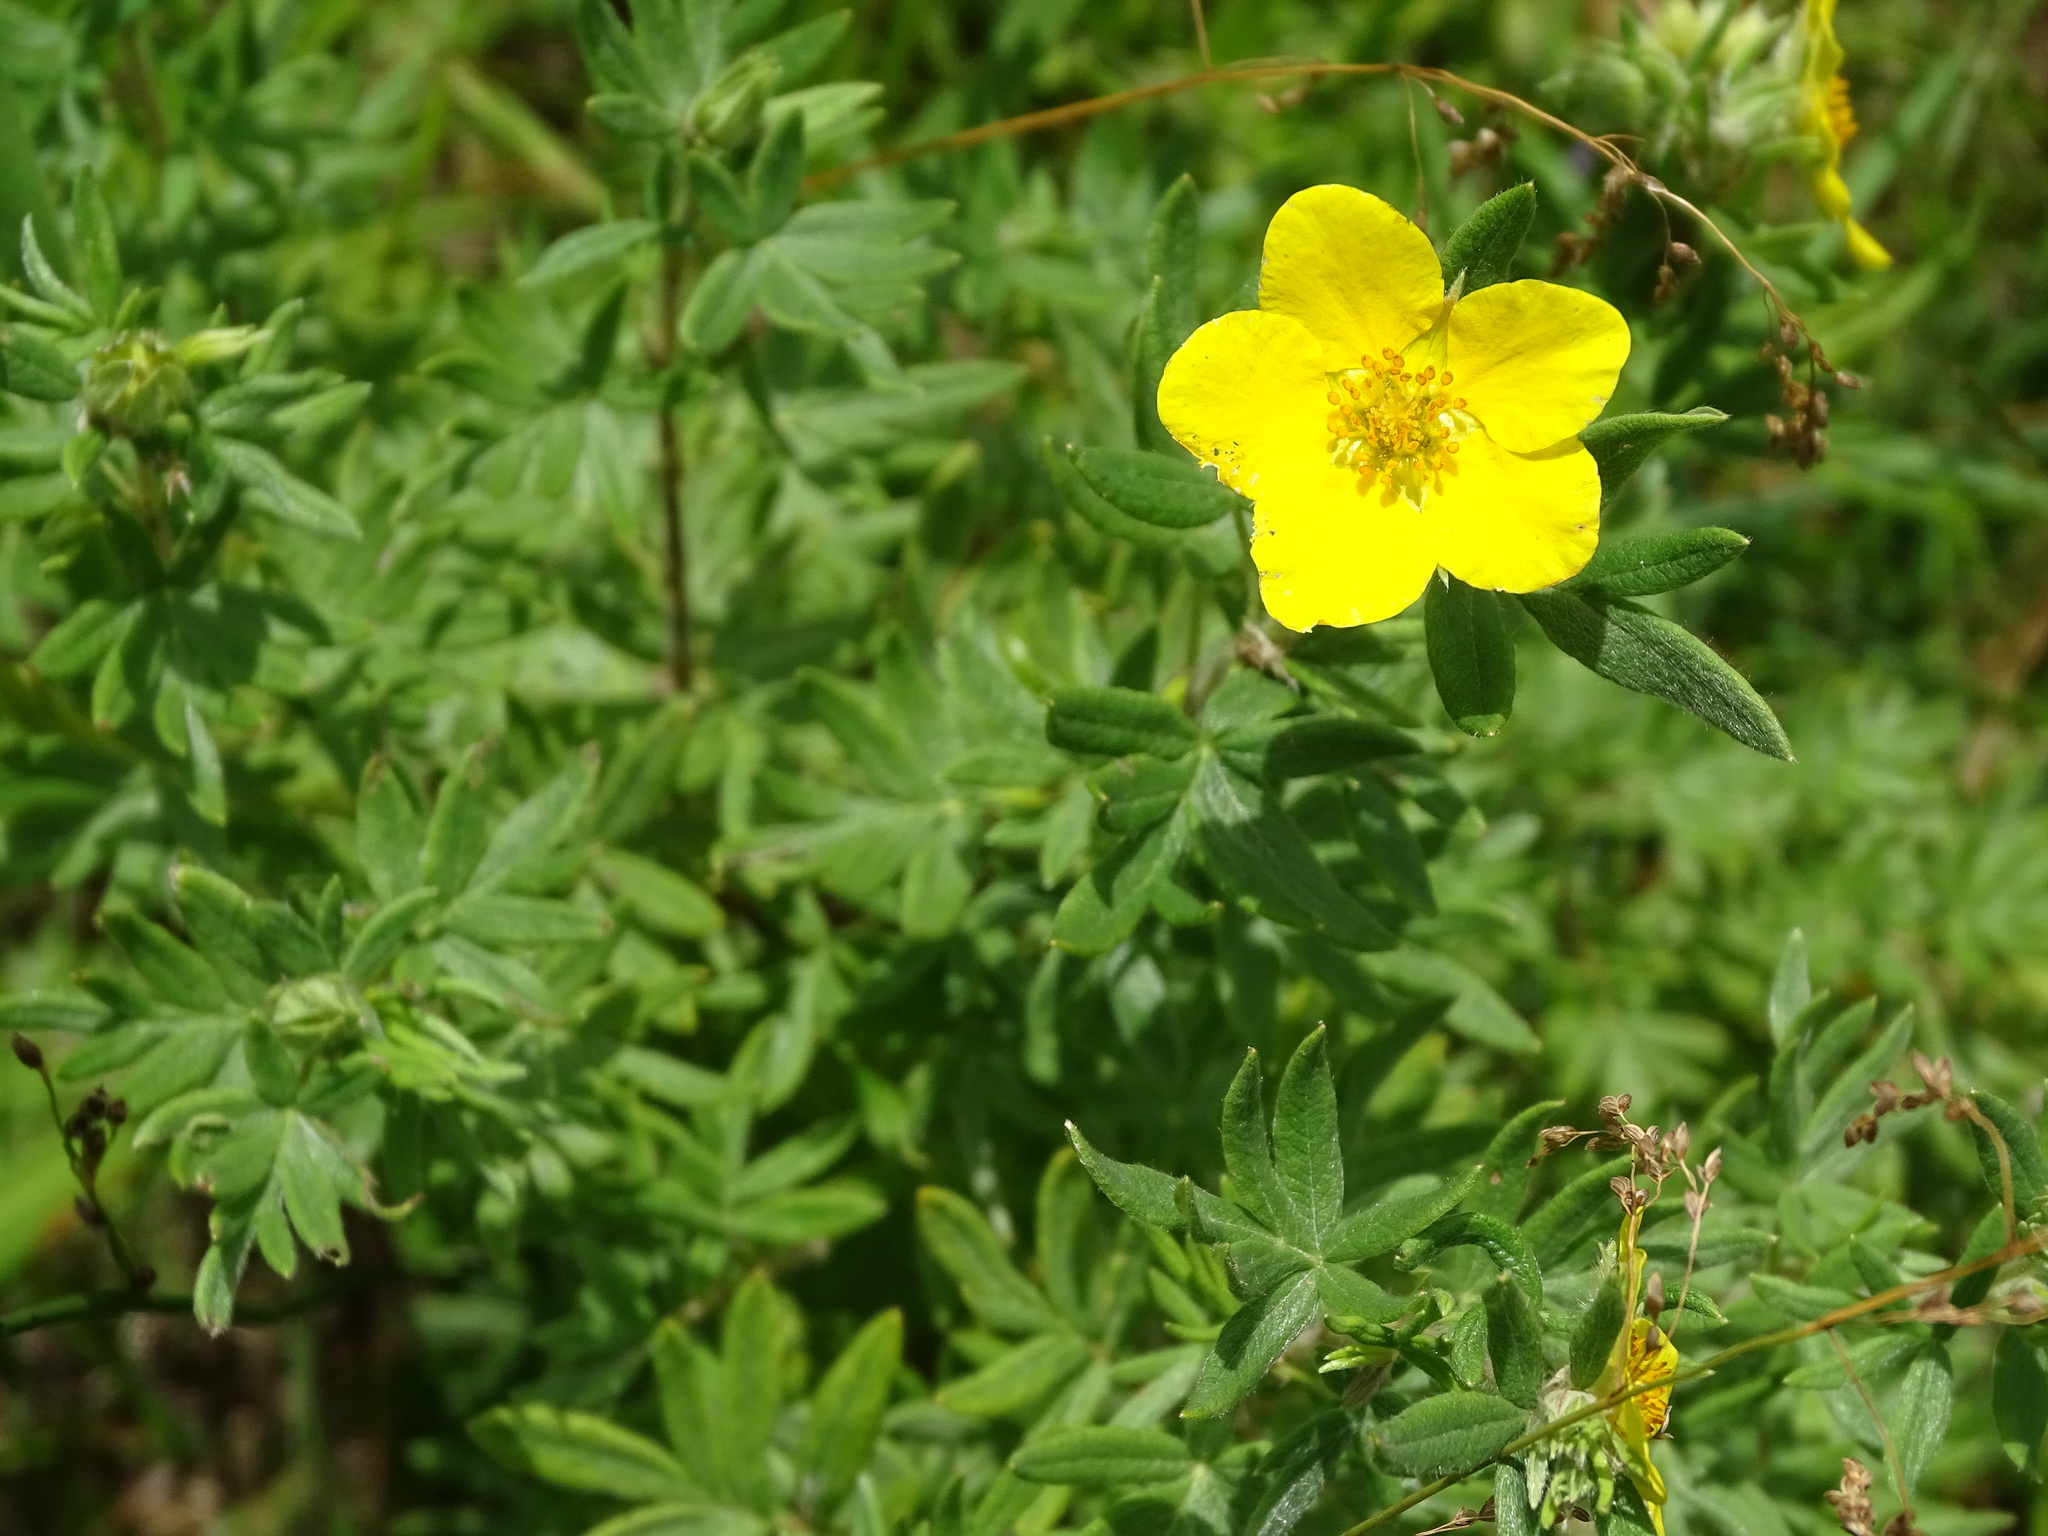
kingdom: Plantae
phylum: Tracheophyta
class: Magnoliopsida
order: Rosales
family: Rosaceae
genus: Dasiphora
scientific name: Dasiphora fruticosa
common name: Shrubby cinquefoil
